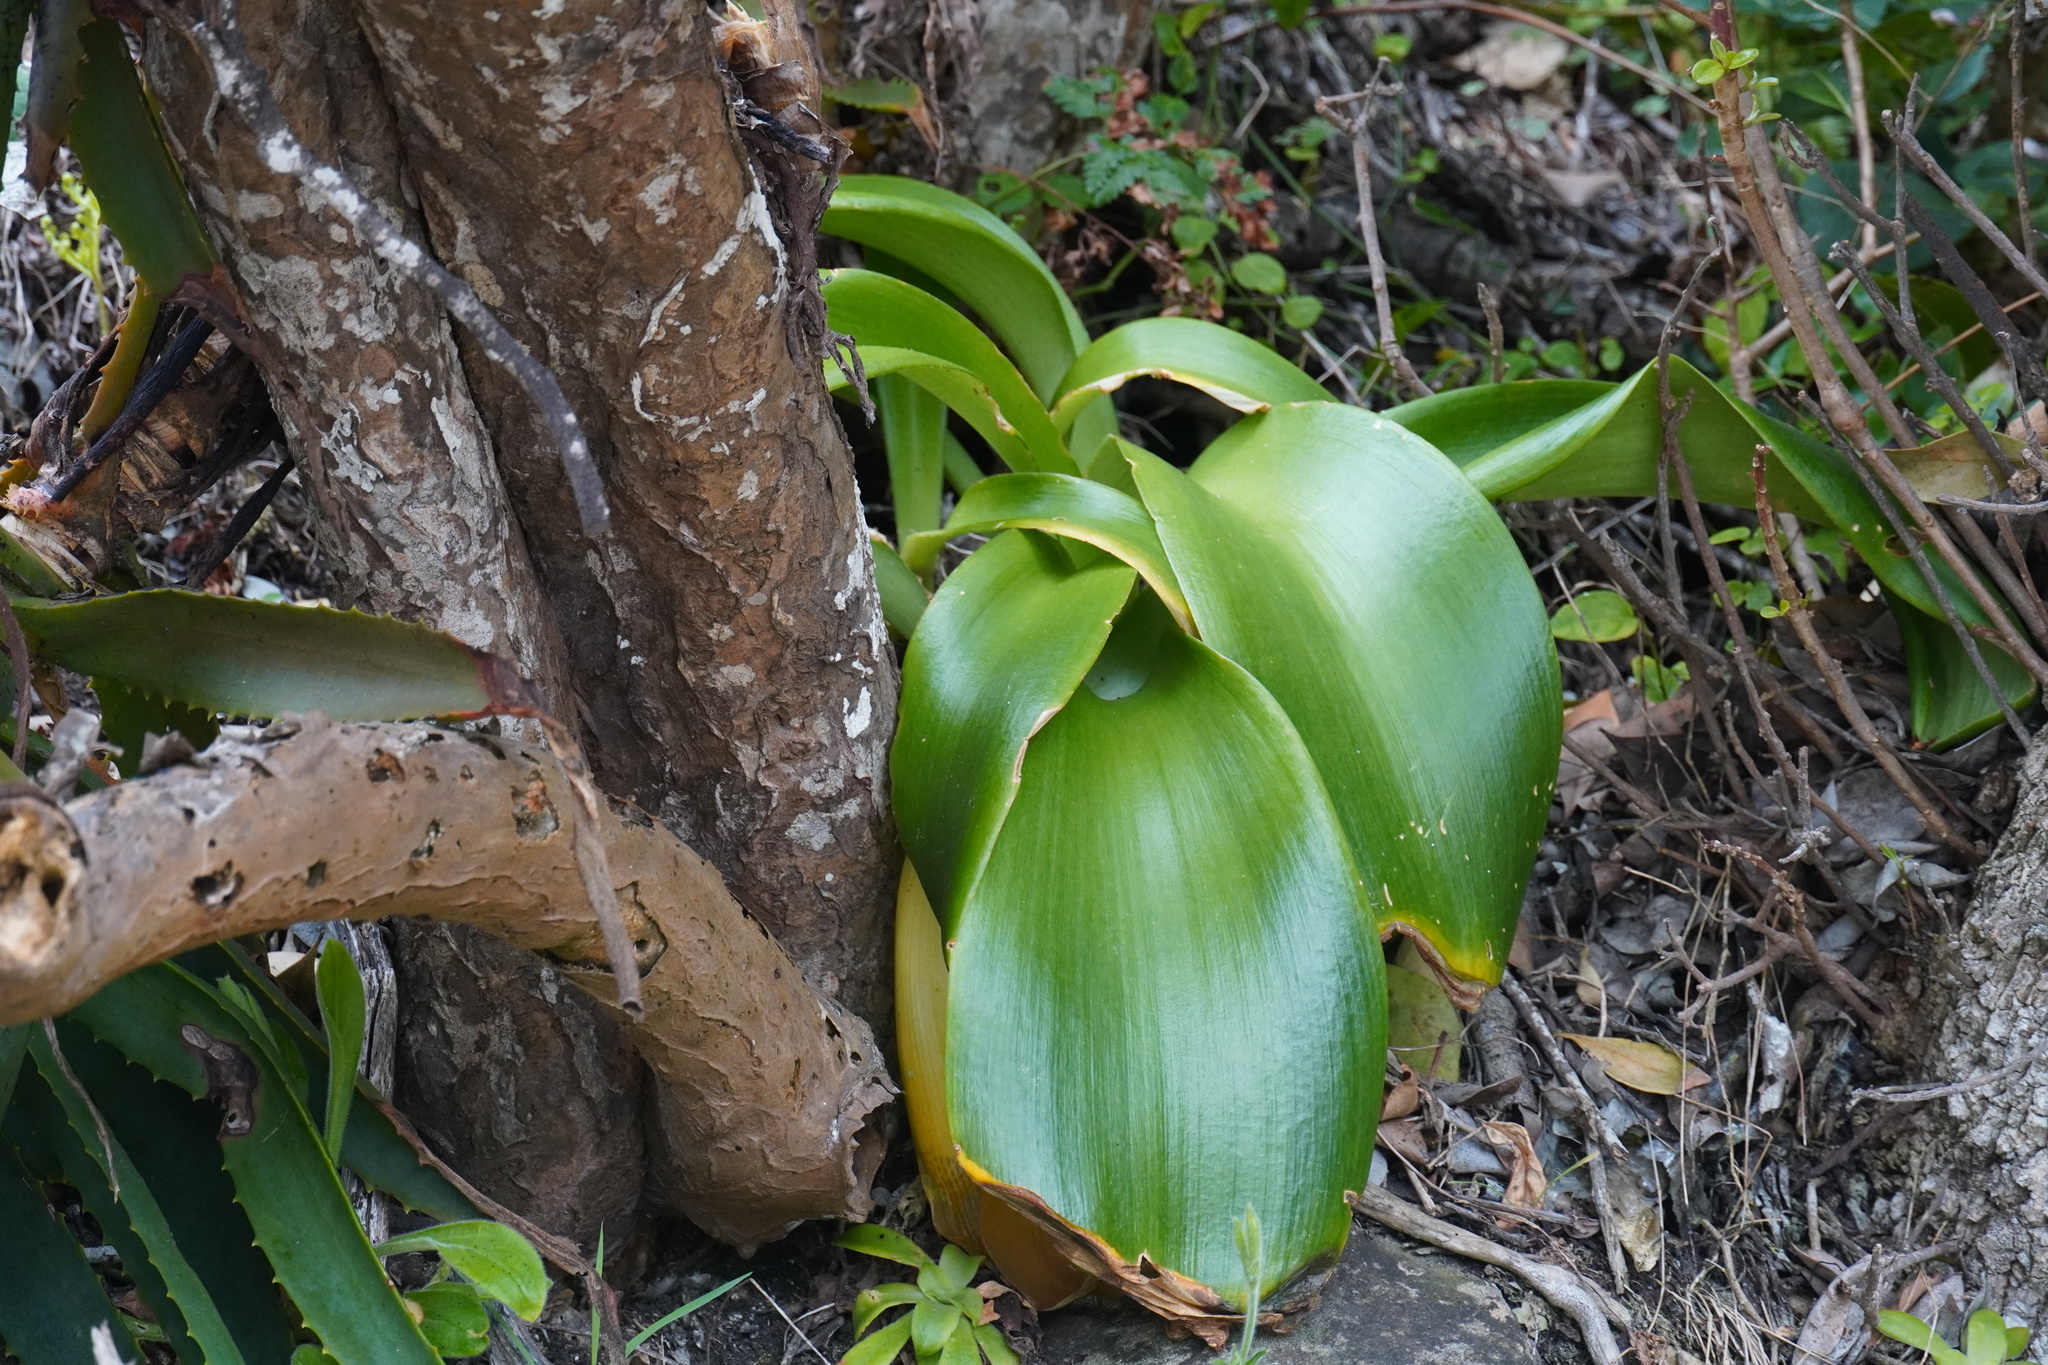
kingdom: Plantae
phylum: Tracheophyta
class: Liliopsida
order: Asparagales
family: Amaryllidaceae
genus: Haemanthus
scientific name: Haemanthus albiflos
